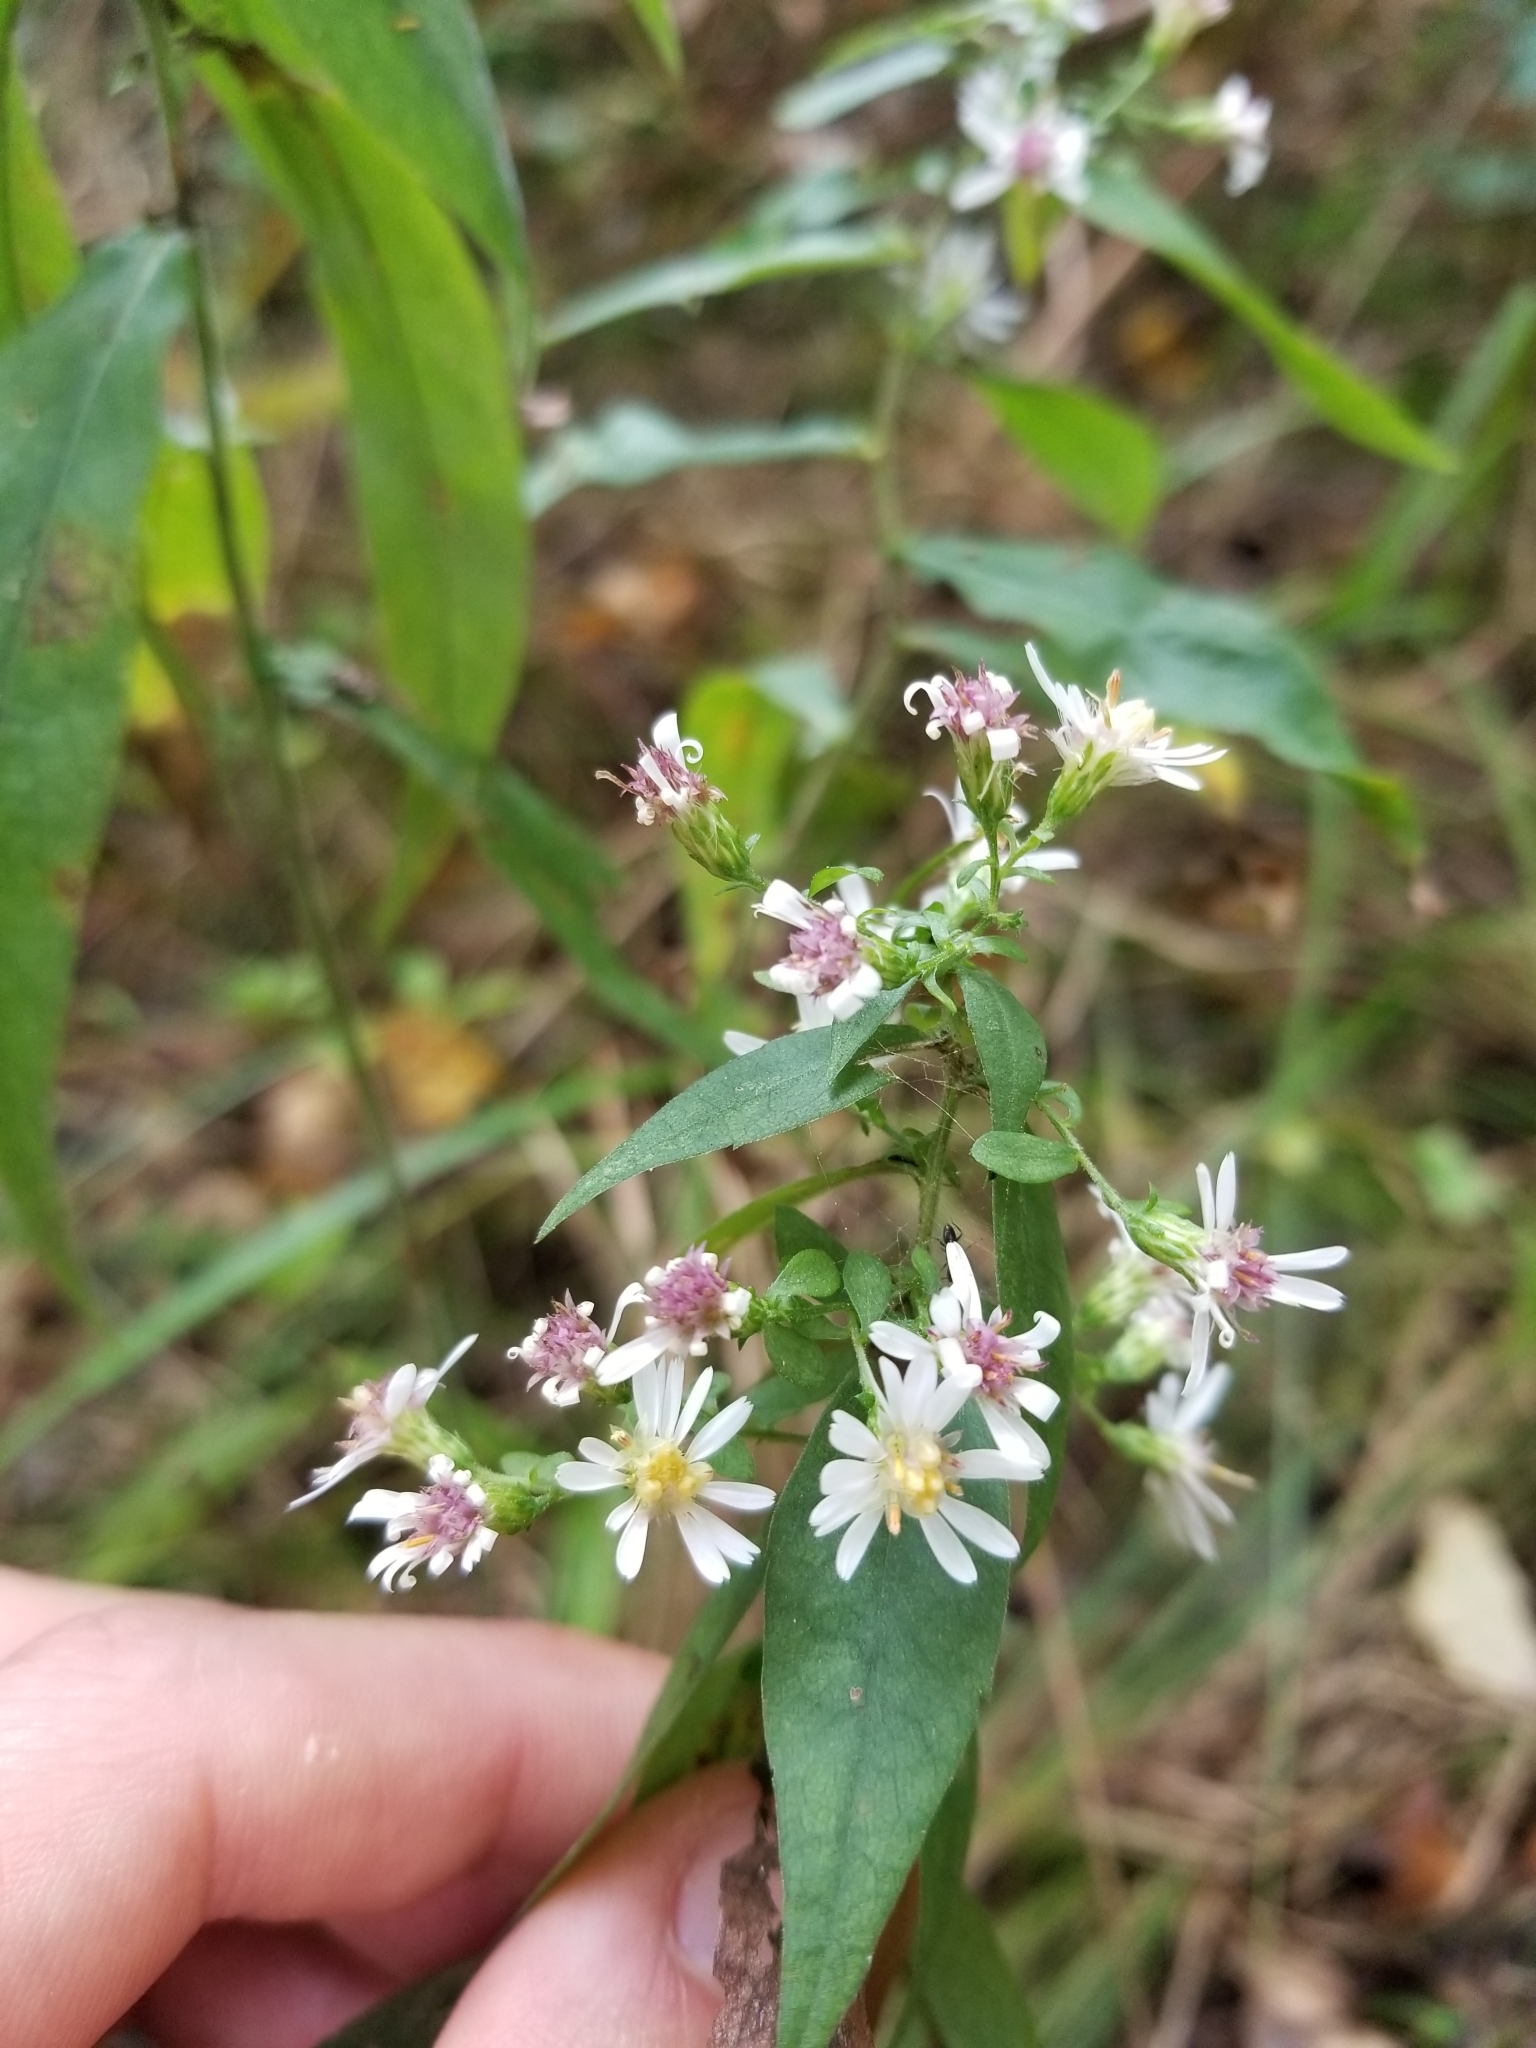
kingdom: Plantae
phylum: Tracheophyta
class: Magnoliopsida
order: Asterales
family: Asteraceae
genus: Symphyotrichum
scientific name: Symphyotrichum lateriflorum
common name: Calico aster
